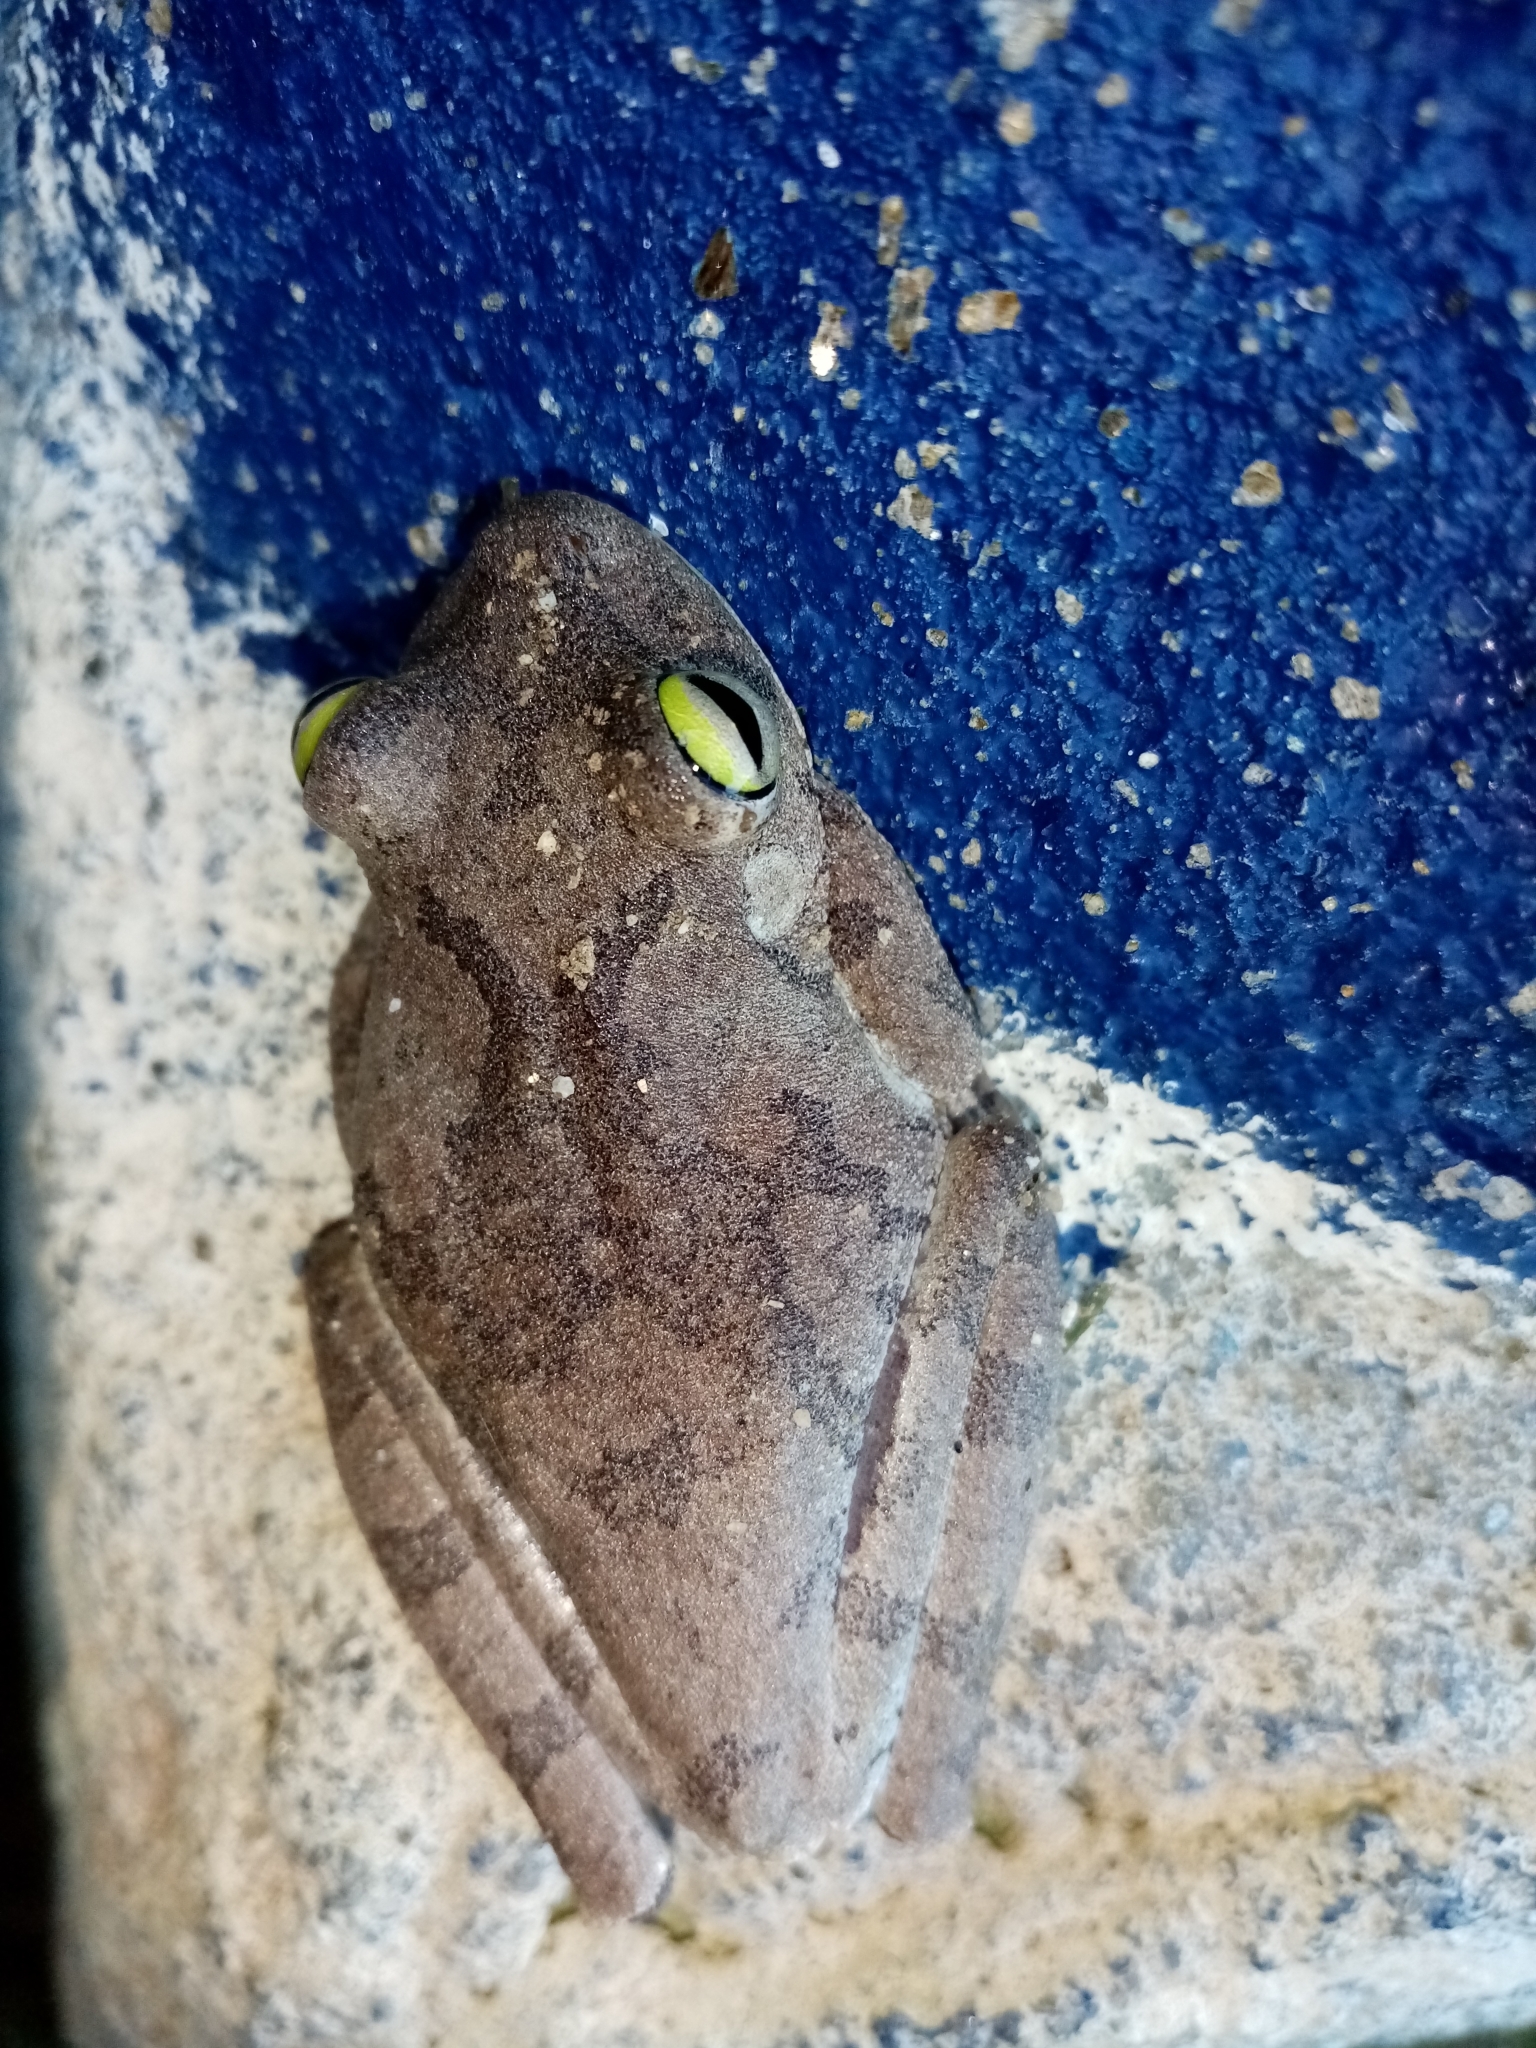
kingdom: Animalia
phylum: Chordata
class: Amphibia
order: Anura
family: Hylidae
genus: Boana
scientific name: Boana platanera
